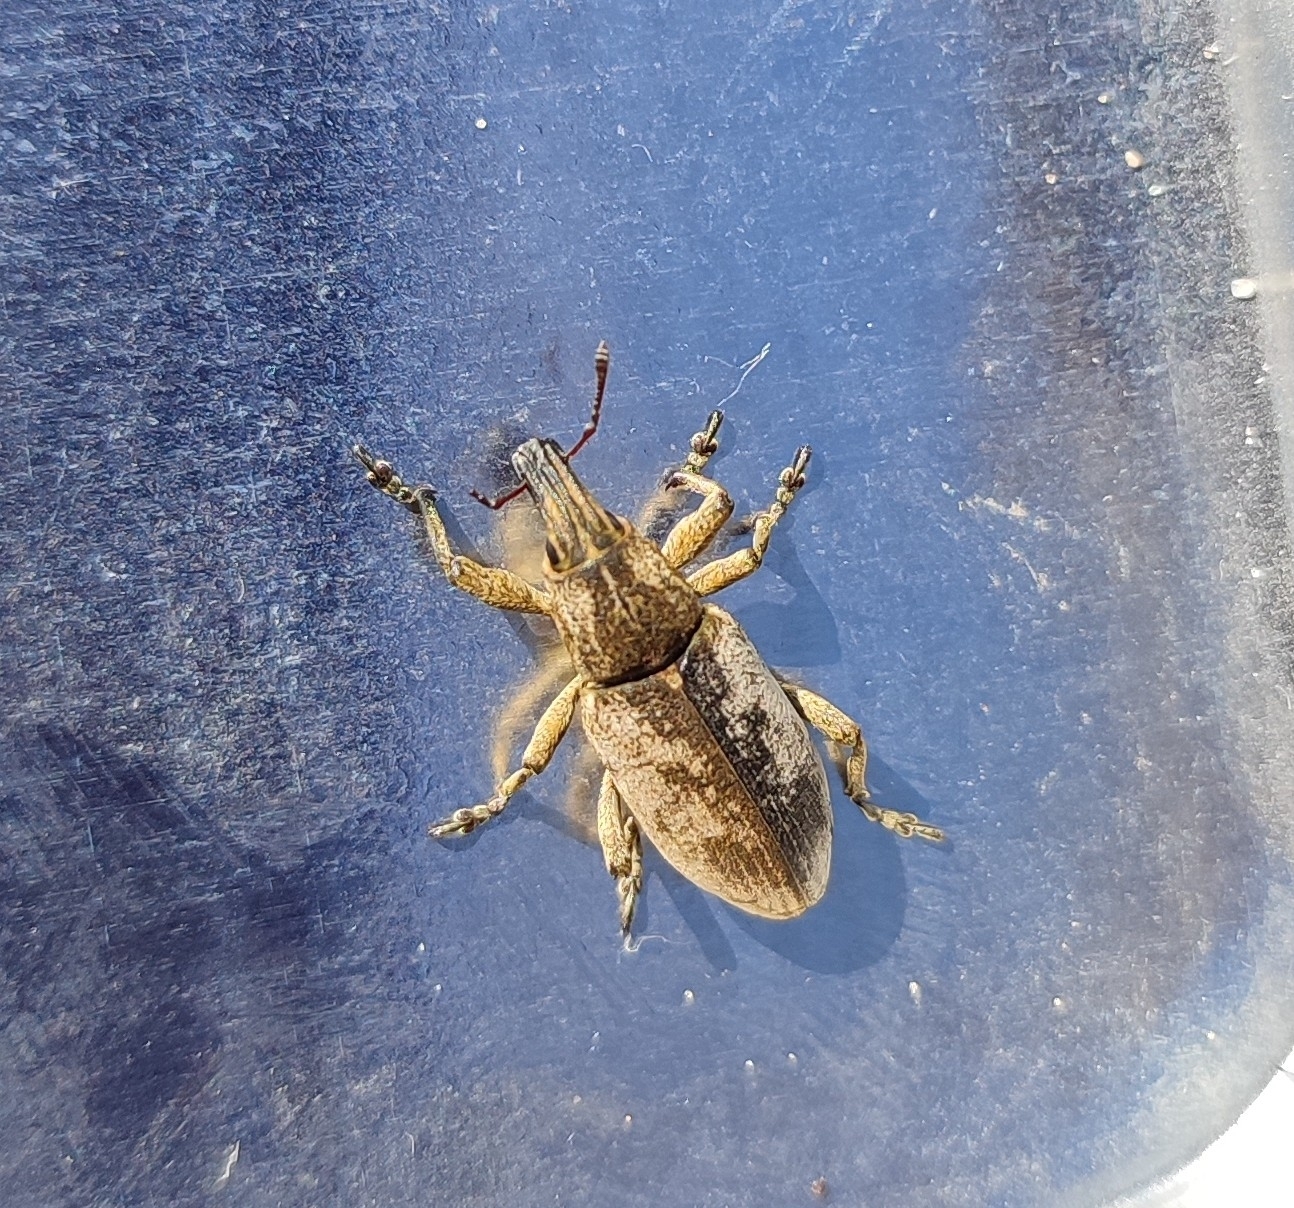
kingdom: Animalia
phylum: Arthropoda
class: Insecta
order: Coleoptera
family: Curculionidae
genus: Cleonis
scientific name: Cleonis pigra
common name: Large thistle weevil
